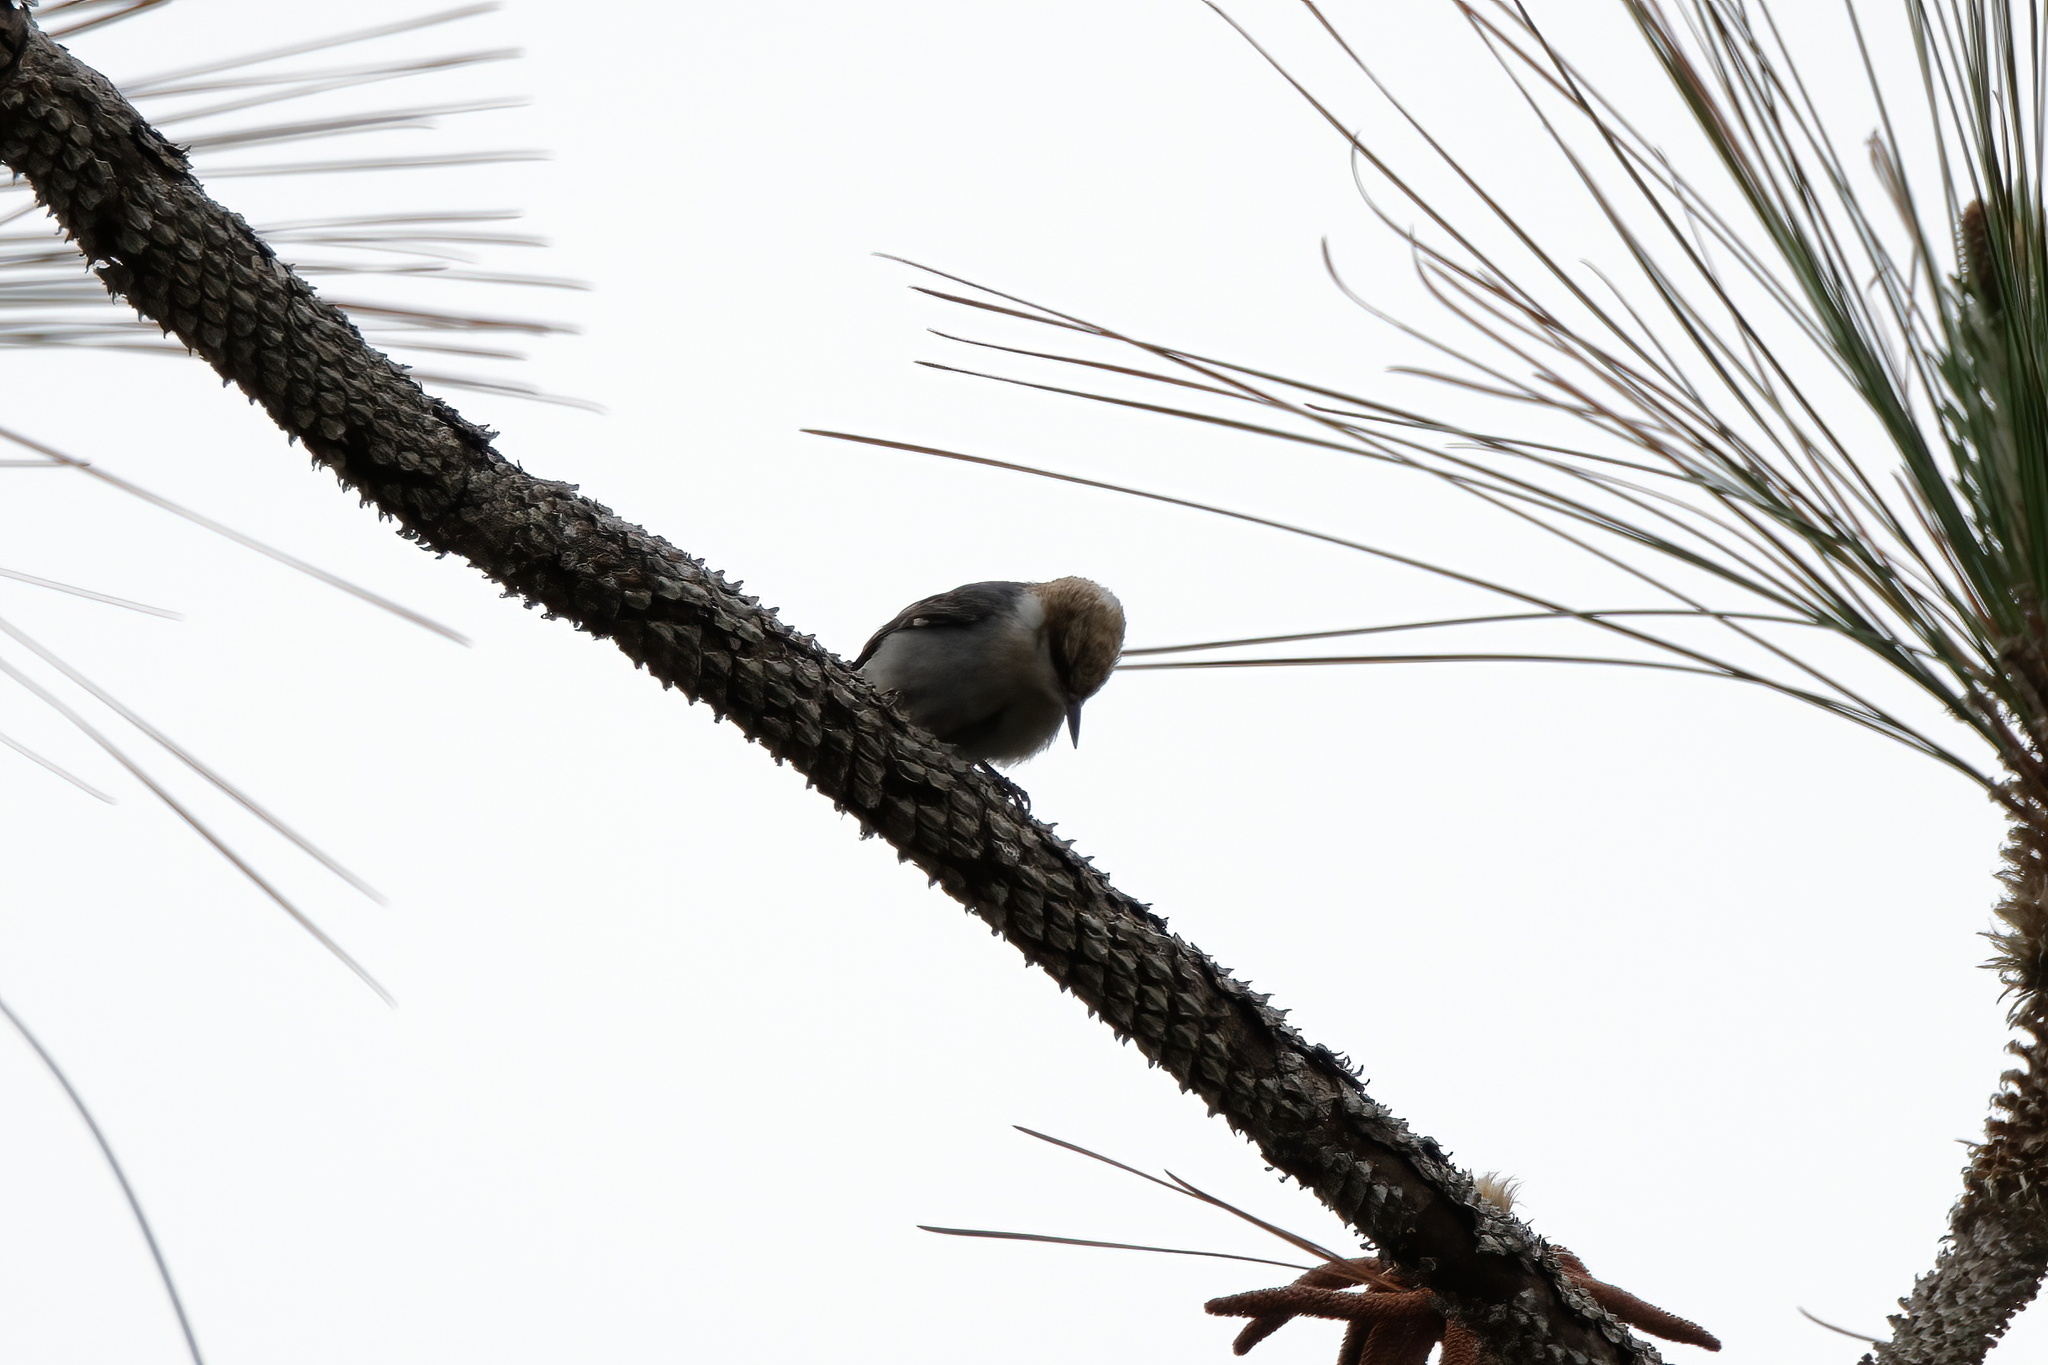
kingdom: Animalia
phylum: Chordata
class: Aves
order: Passeriformes
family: Sittidae
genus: Sitta
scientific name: Sitta pusilla
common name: Brown-headed nuthatch
